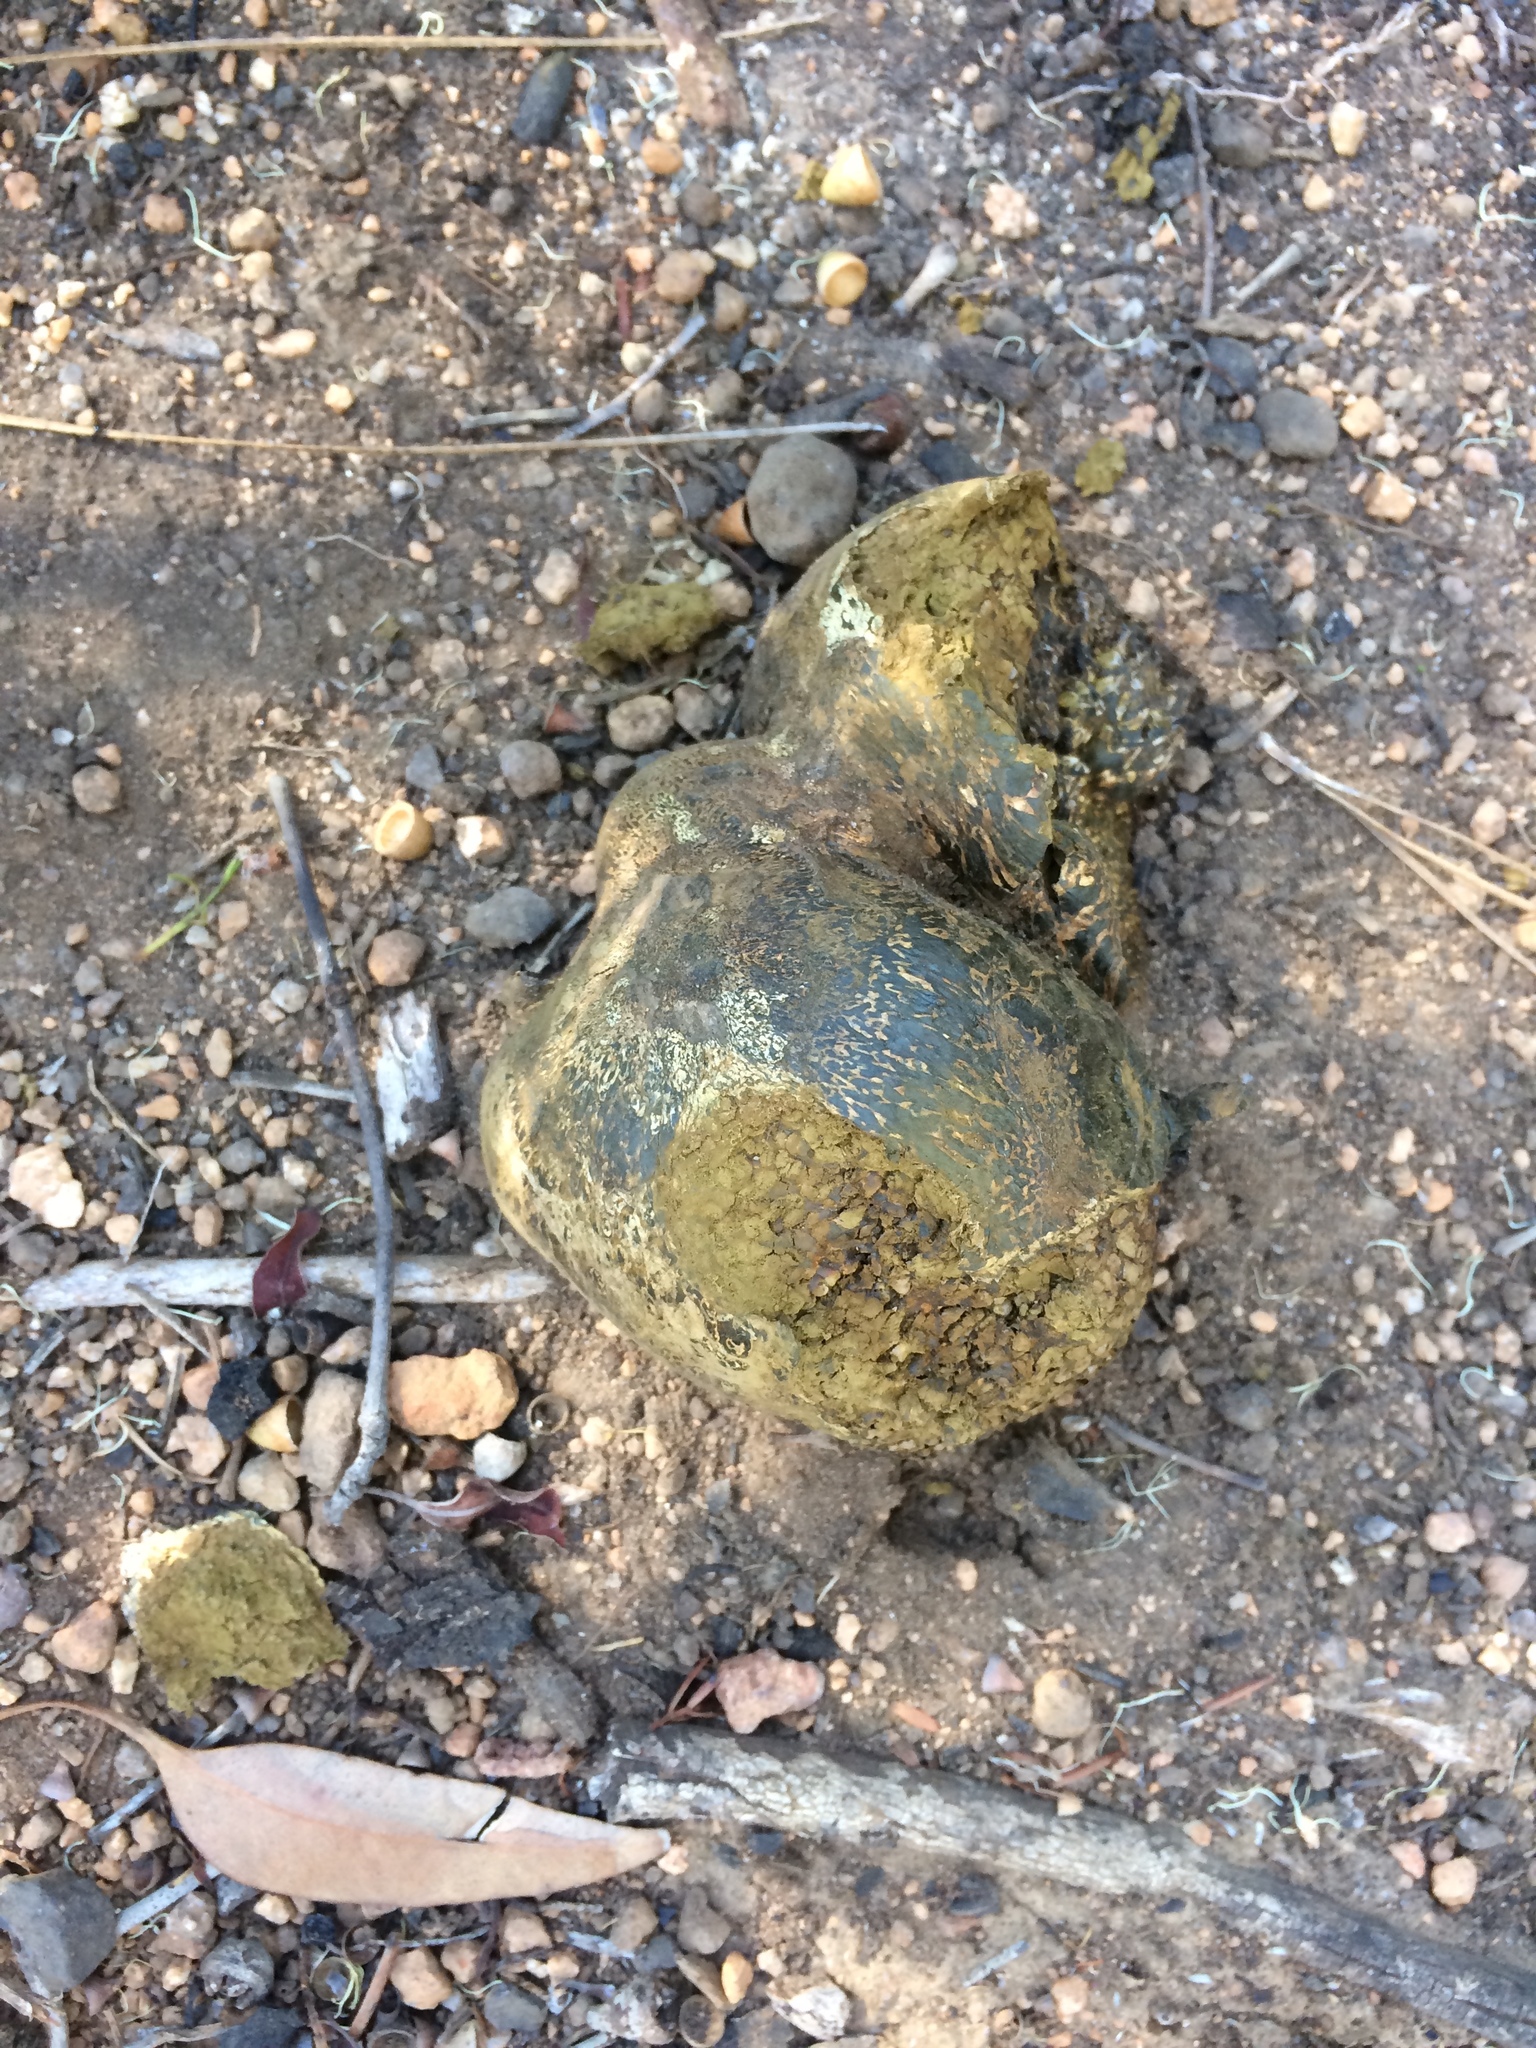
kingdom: Fungi
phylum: Basidiomycota
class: Agaricomycetes
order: Boletales
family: Sclerodermataceae
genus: Pisolithus
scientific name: Pisolithus arhizus
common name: Dyeball
